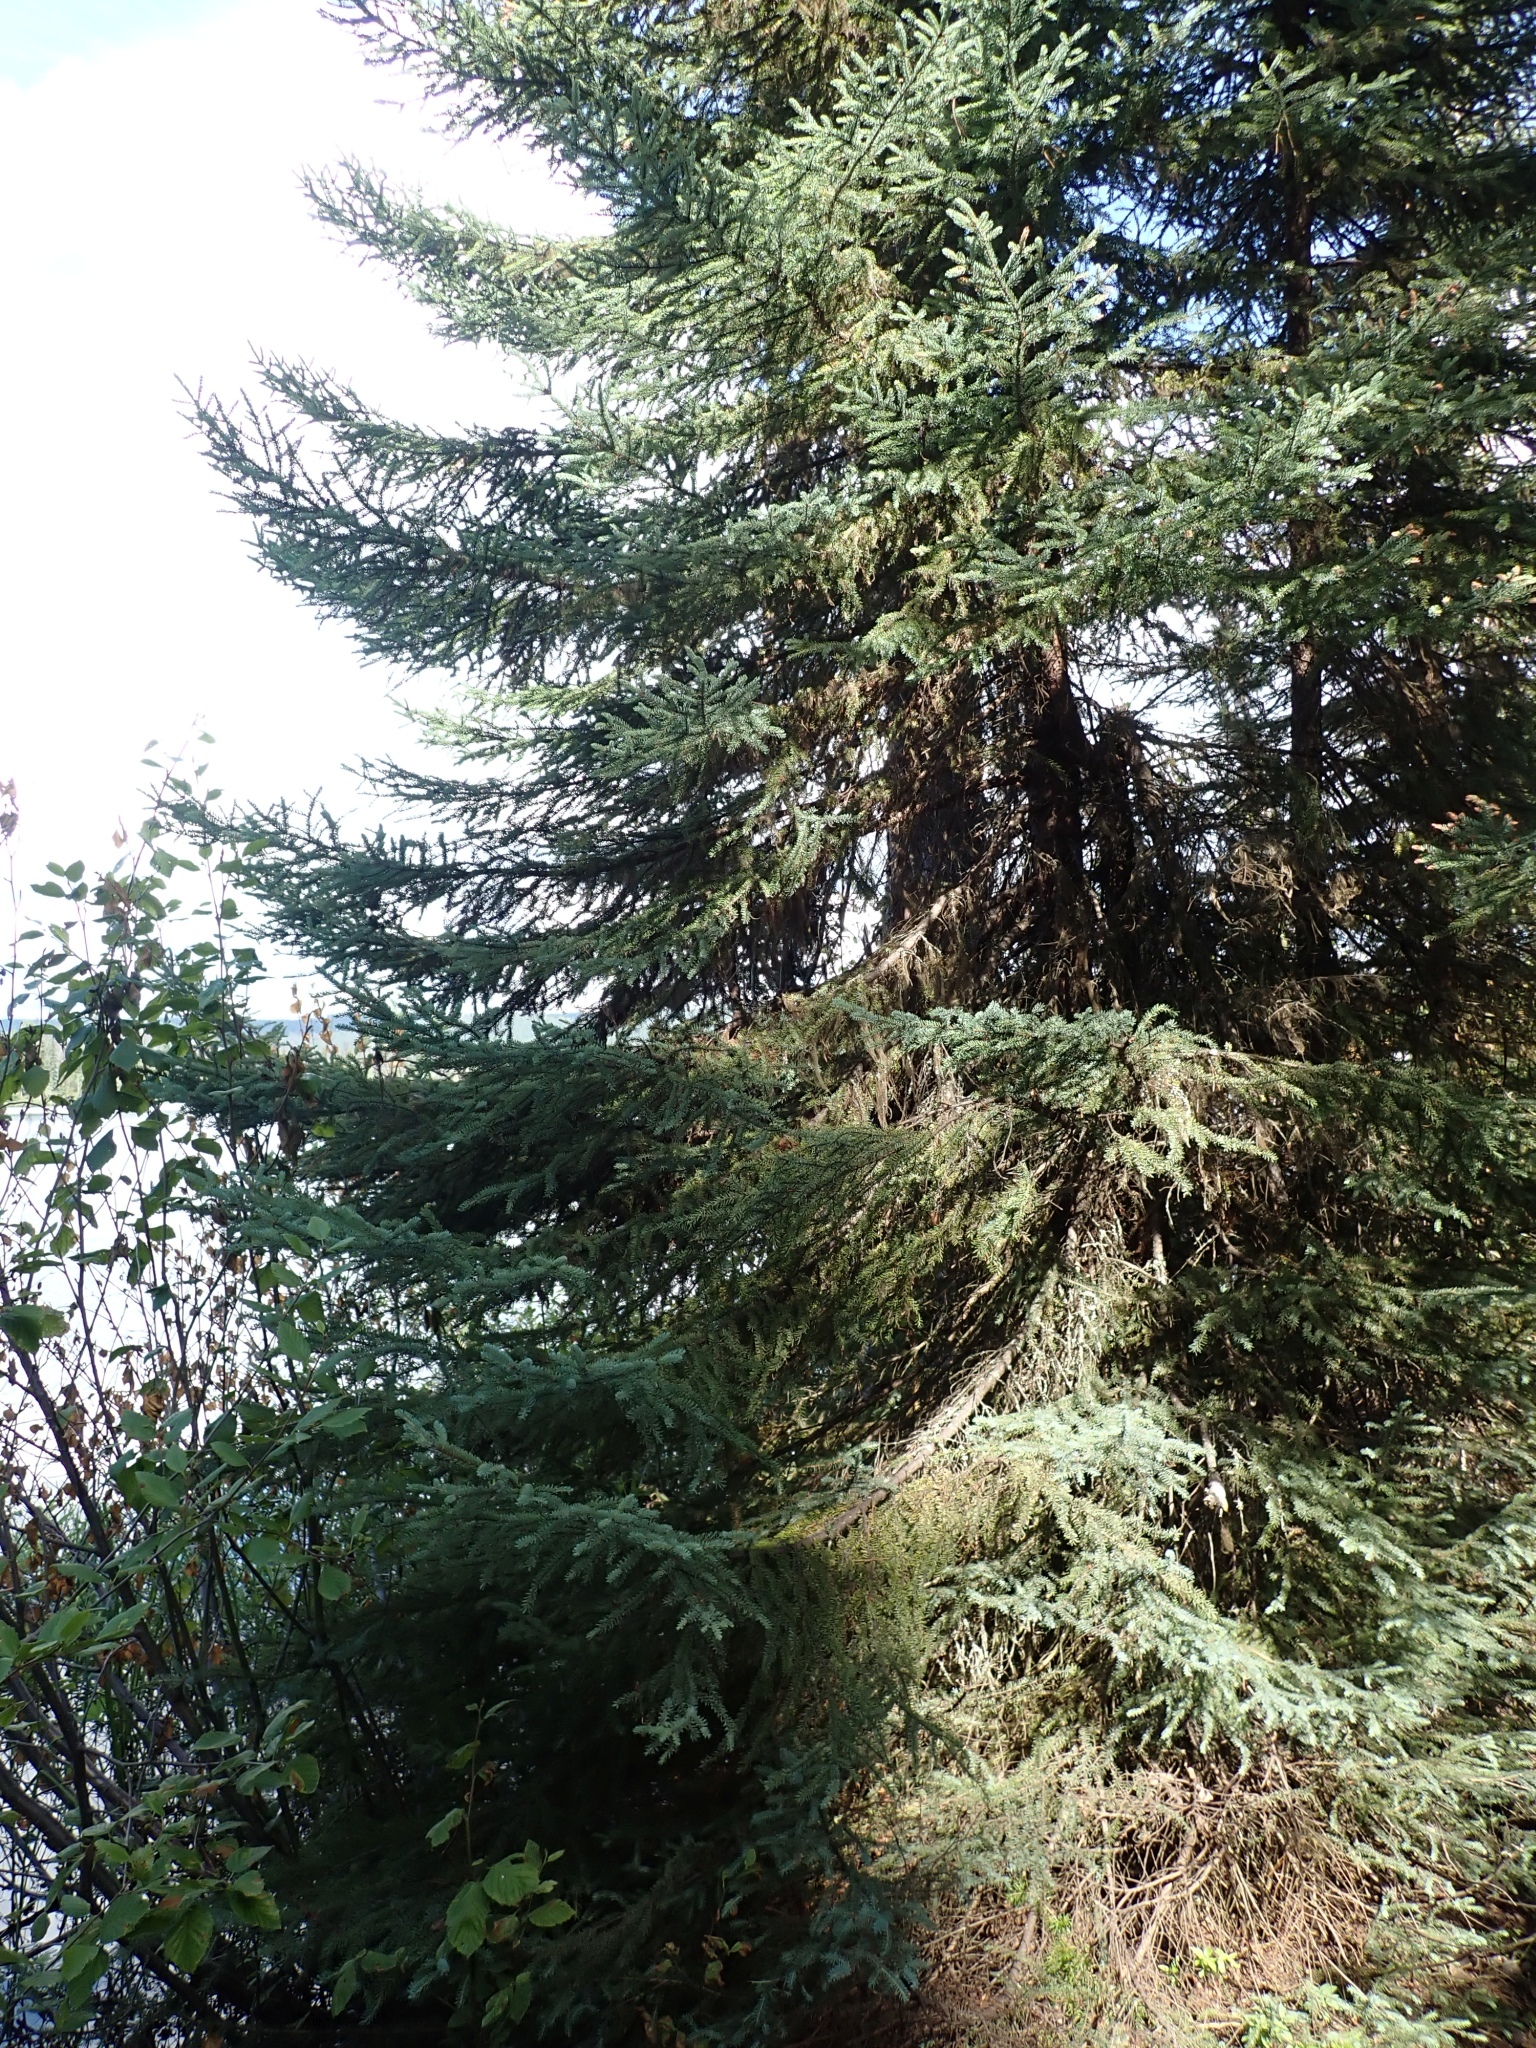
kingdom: Plantae
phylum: Tracheophyta
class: Pinopsida
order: Pinales
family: Pinaceae
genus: Picea
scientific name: Picea mariana
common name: Black spruce
